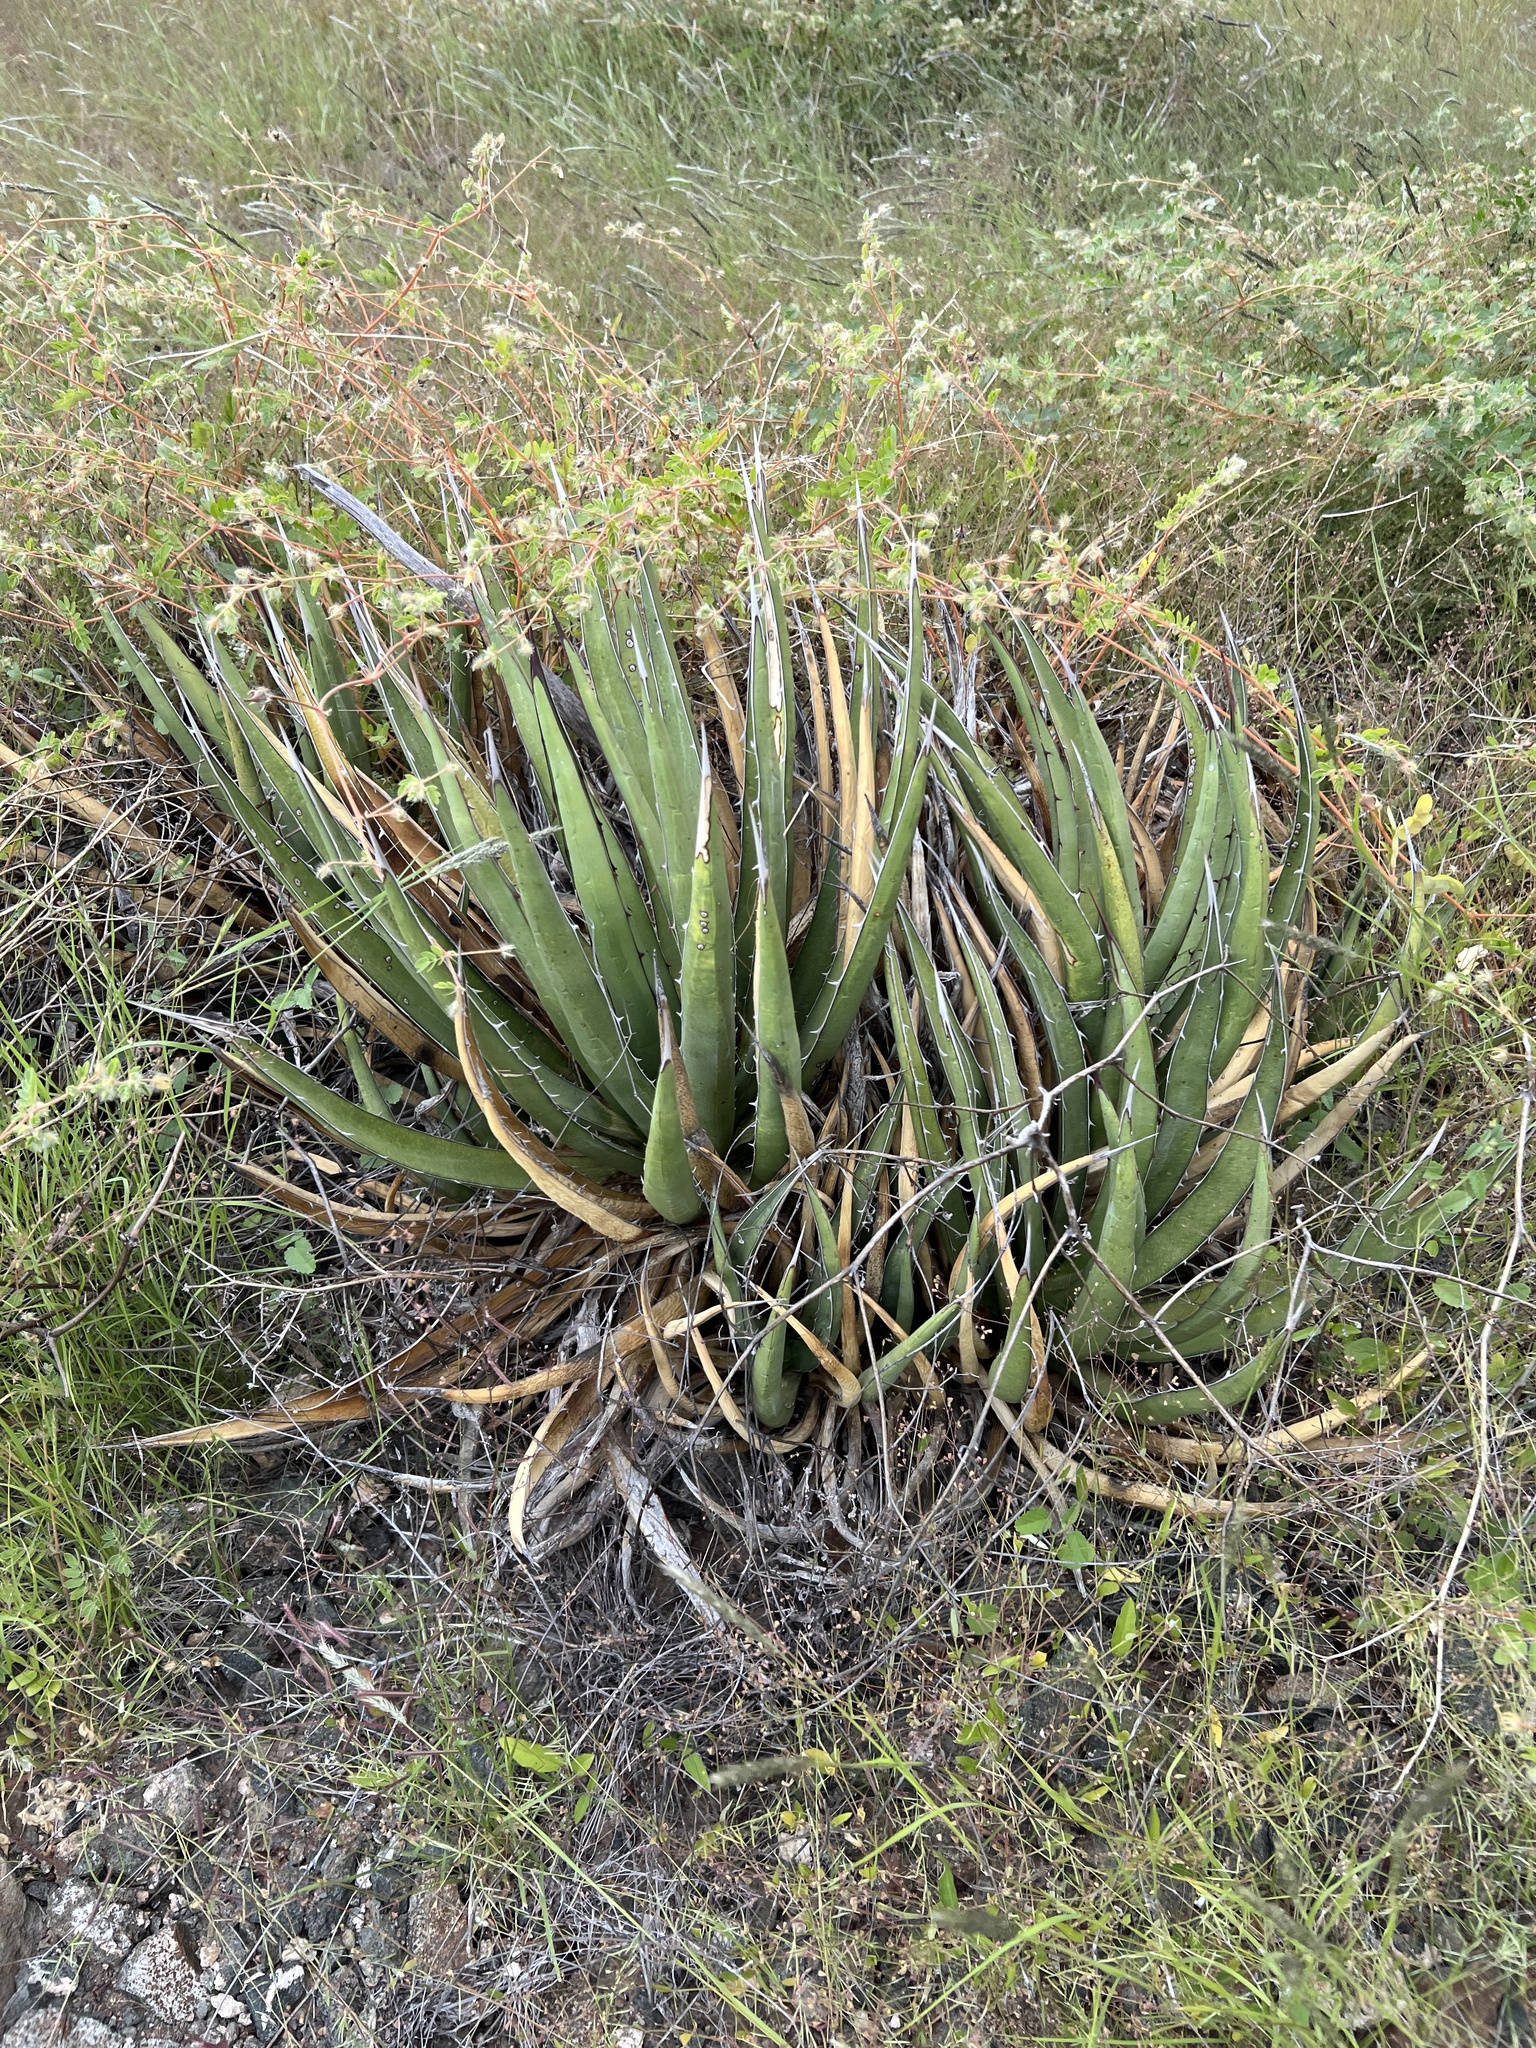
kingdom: Plantae
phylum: Tracheophyta
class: Liliopsida
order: Asparagales
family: Asparagaceae
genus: Agave
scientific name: Agave lechuguilla
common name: Lecheguilla agave
